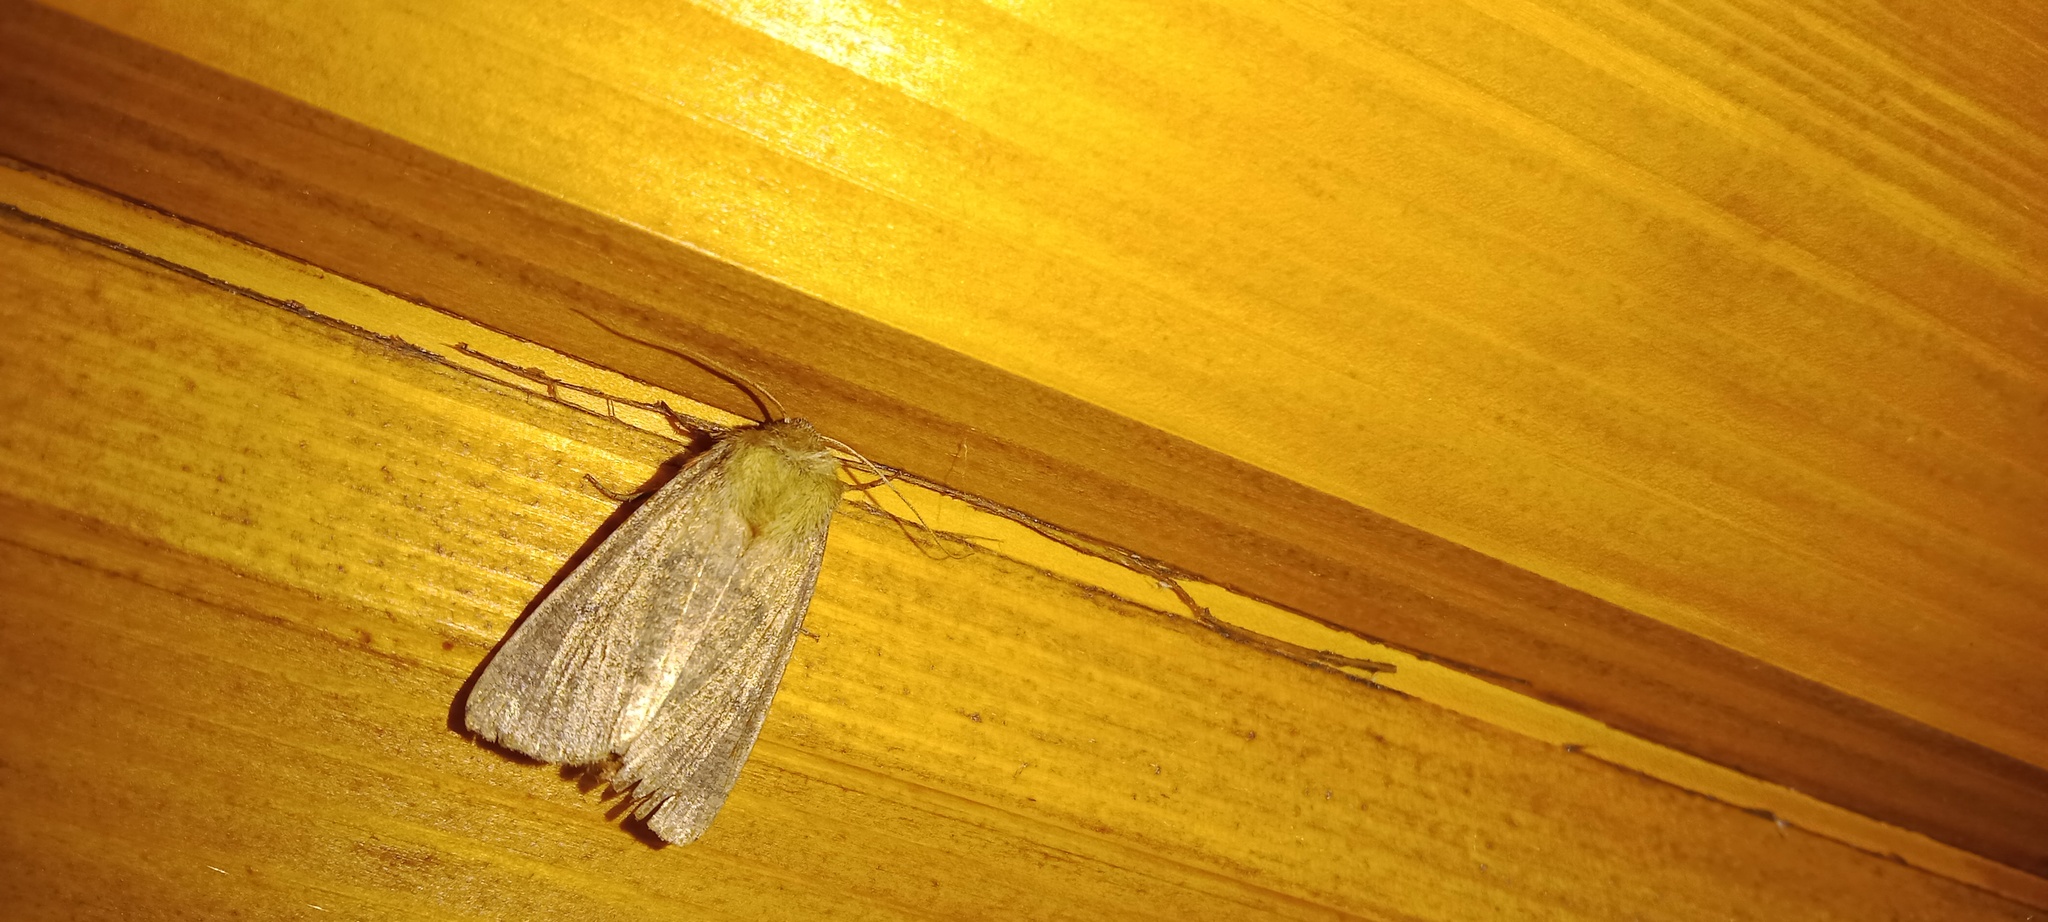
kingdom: Animalia
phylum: Arthropoda
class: Insecta
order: Lepidoptera
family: Noctuidae
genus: Mythimna
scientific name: Mythimna turca
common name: Double line
